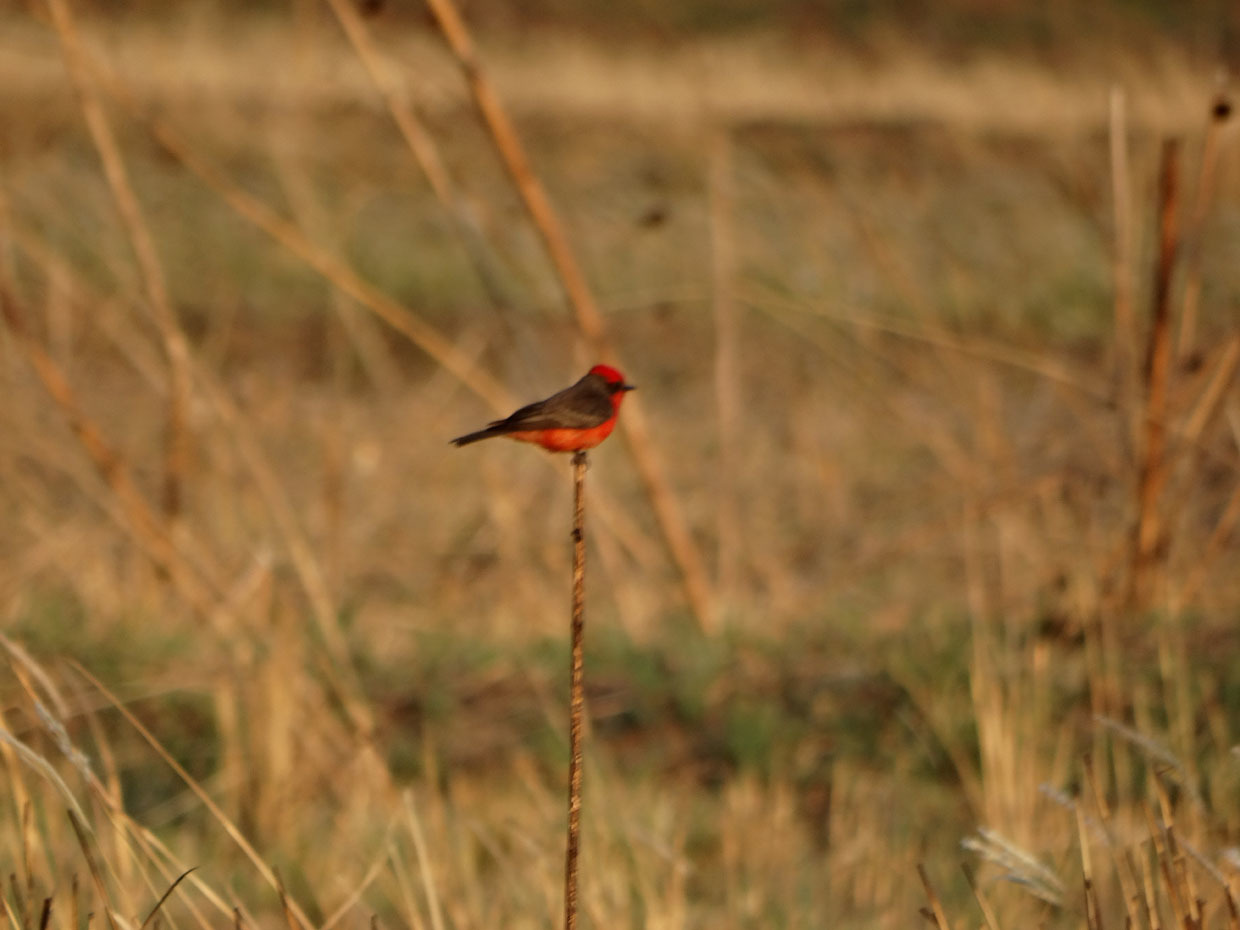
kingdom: Animalia
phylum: Chordata
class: Aves
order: Passeriformes
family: Tyrannidae
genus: Pyrocephalus
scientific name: Pyrocephalus rubinus
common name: Vermilion flycatcher
